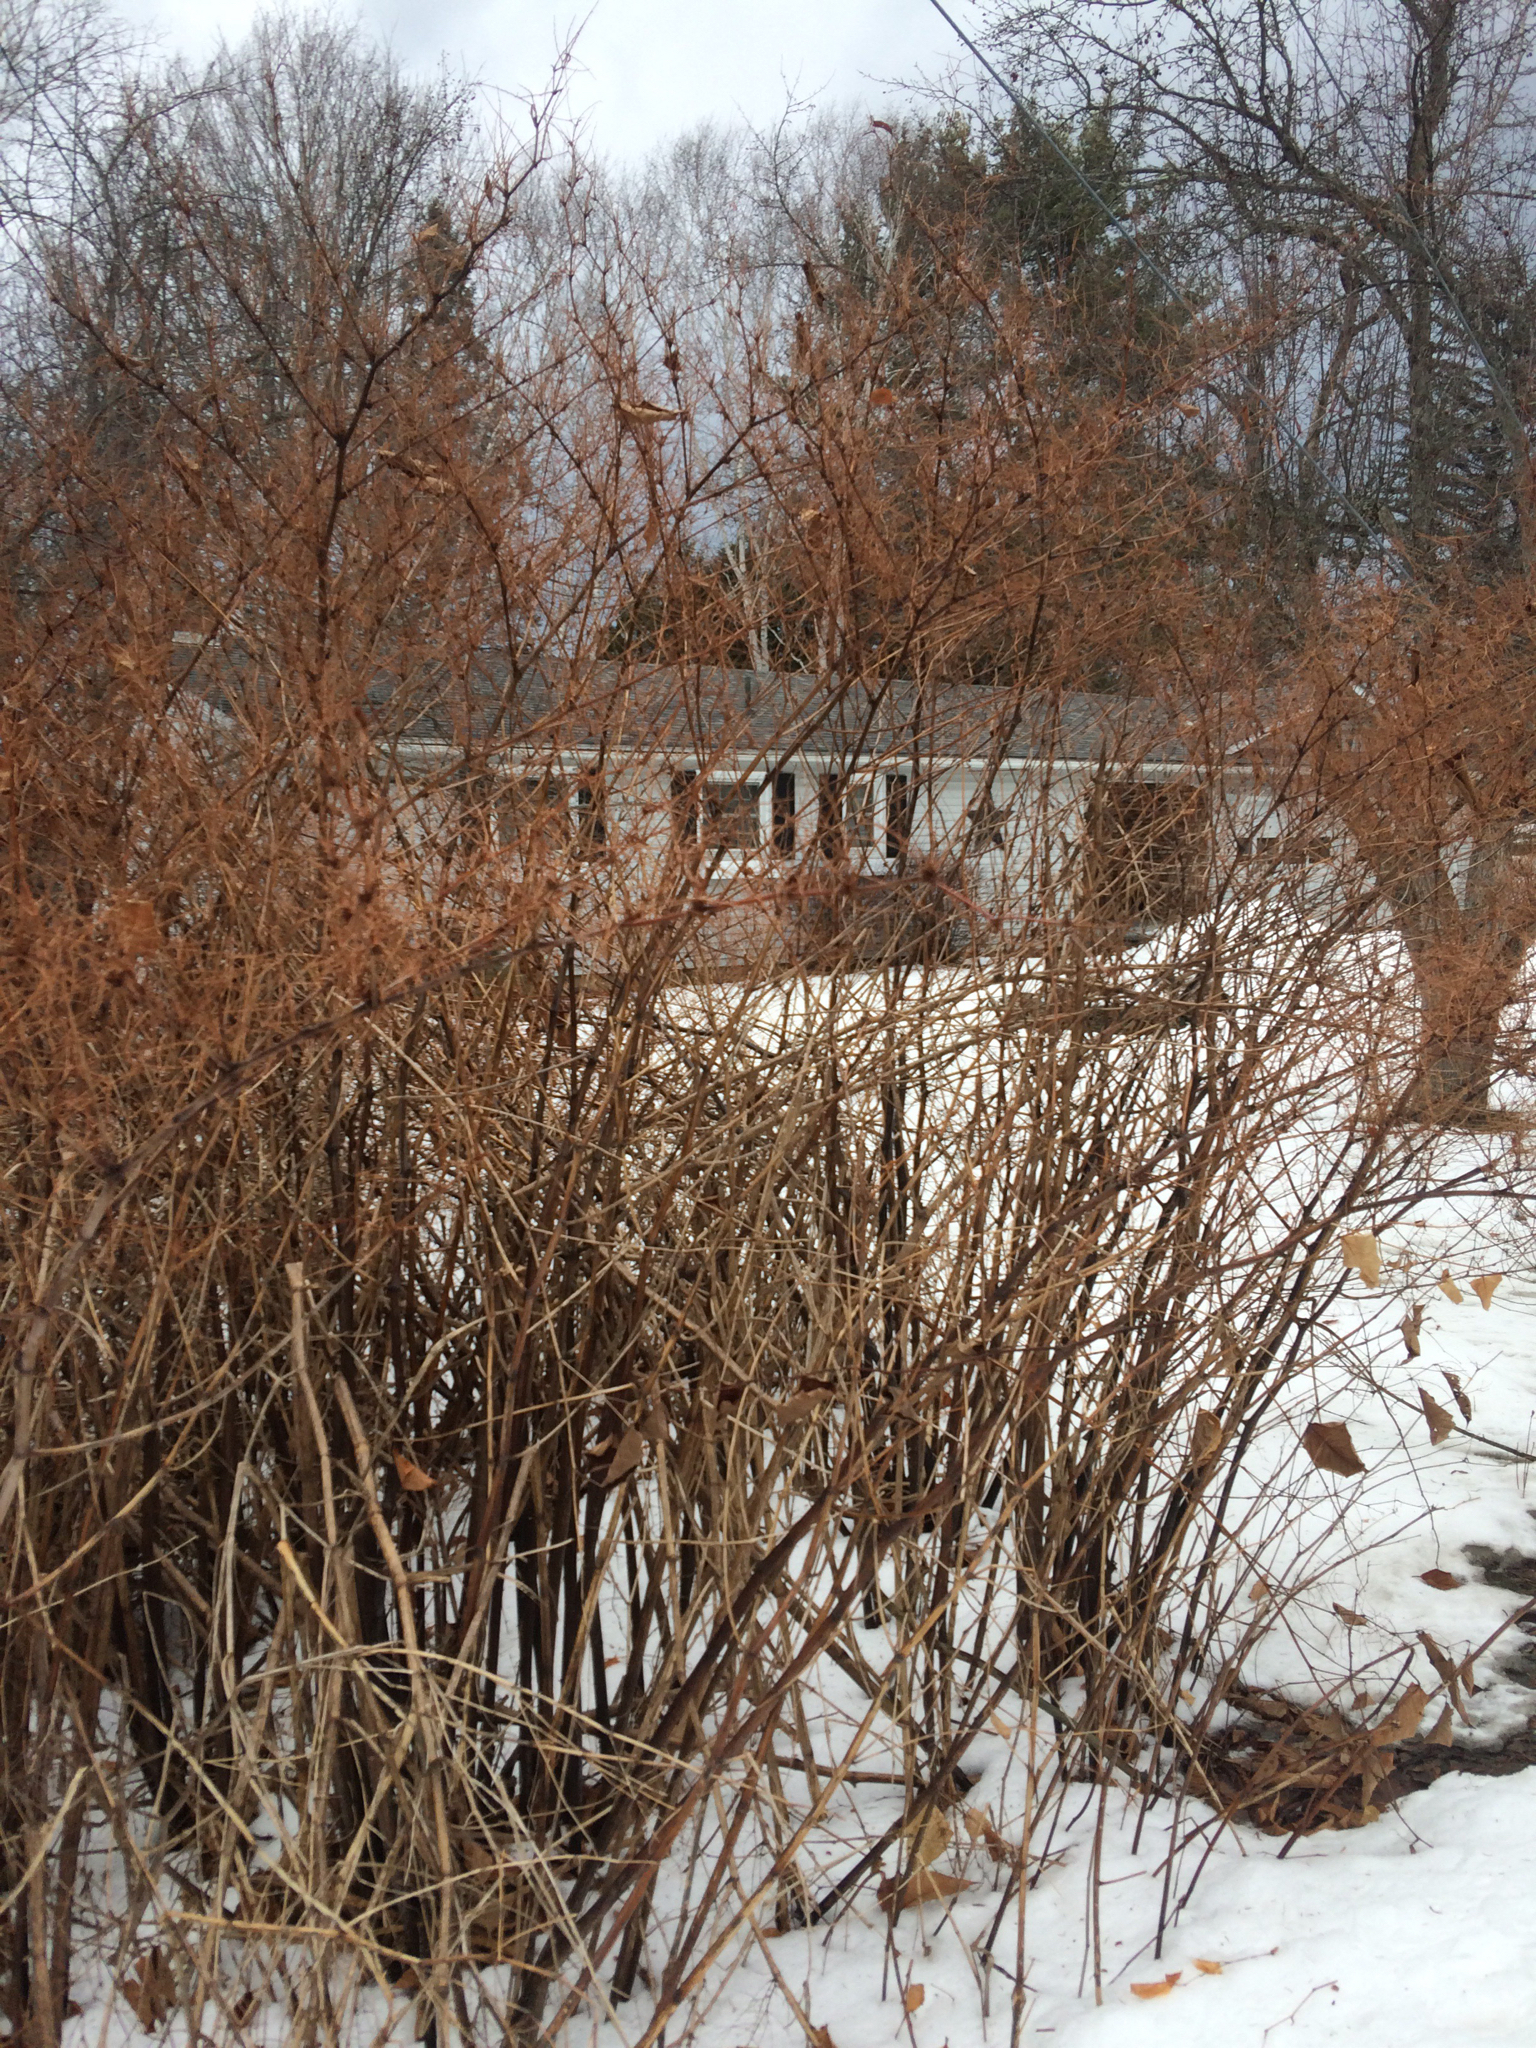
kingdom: Plantae
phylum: Tracheophyta
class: Magnoliopsida
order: Caryophyllales
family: Polygonaceae
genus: Reynoutria
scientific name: Reynoutria japonica
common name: Japanese knotweed
